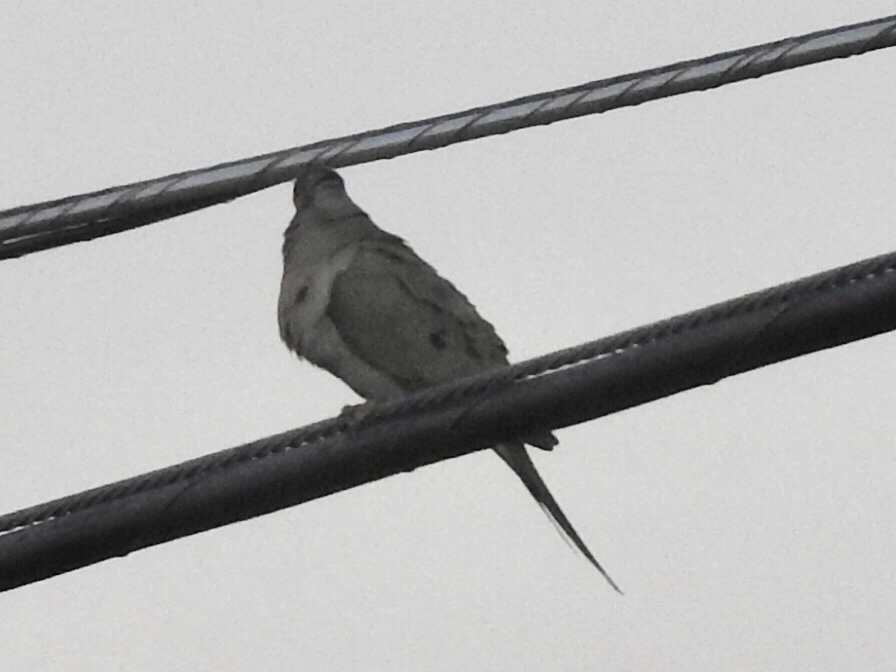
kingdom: Animalia
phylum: Chordata
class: Aves
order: Columbiformes
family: Columbidae
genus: Zenaida
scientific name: Zenaida macroura
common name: Mourning dove
